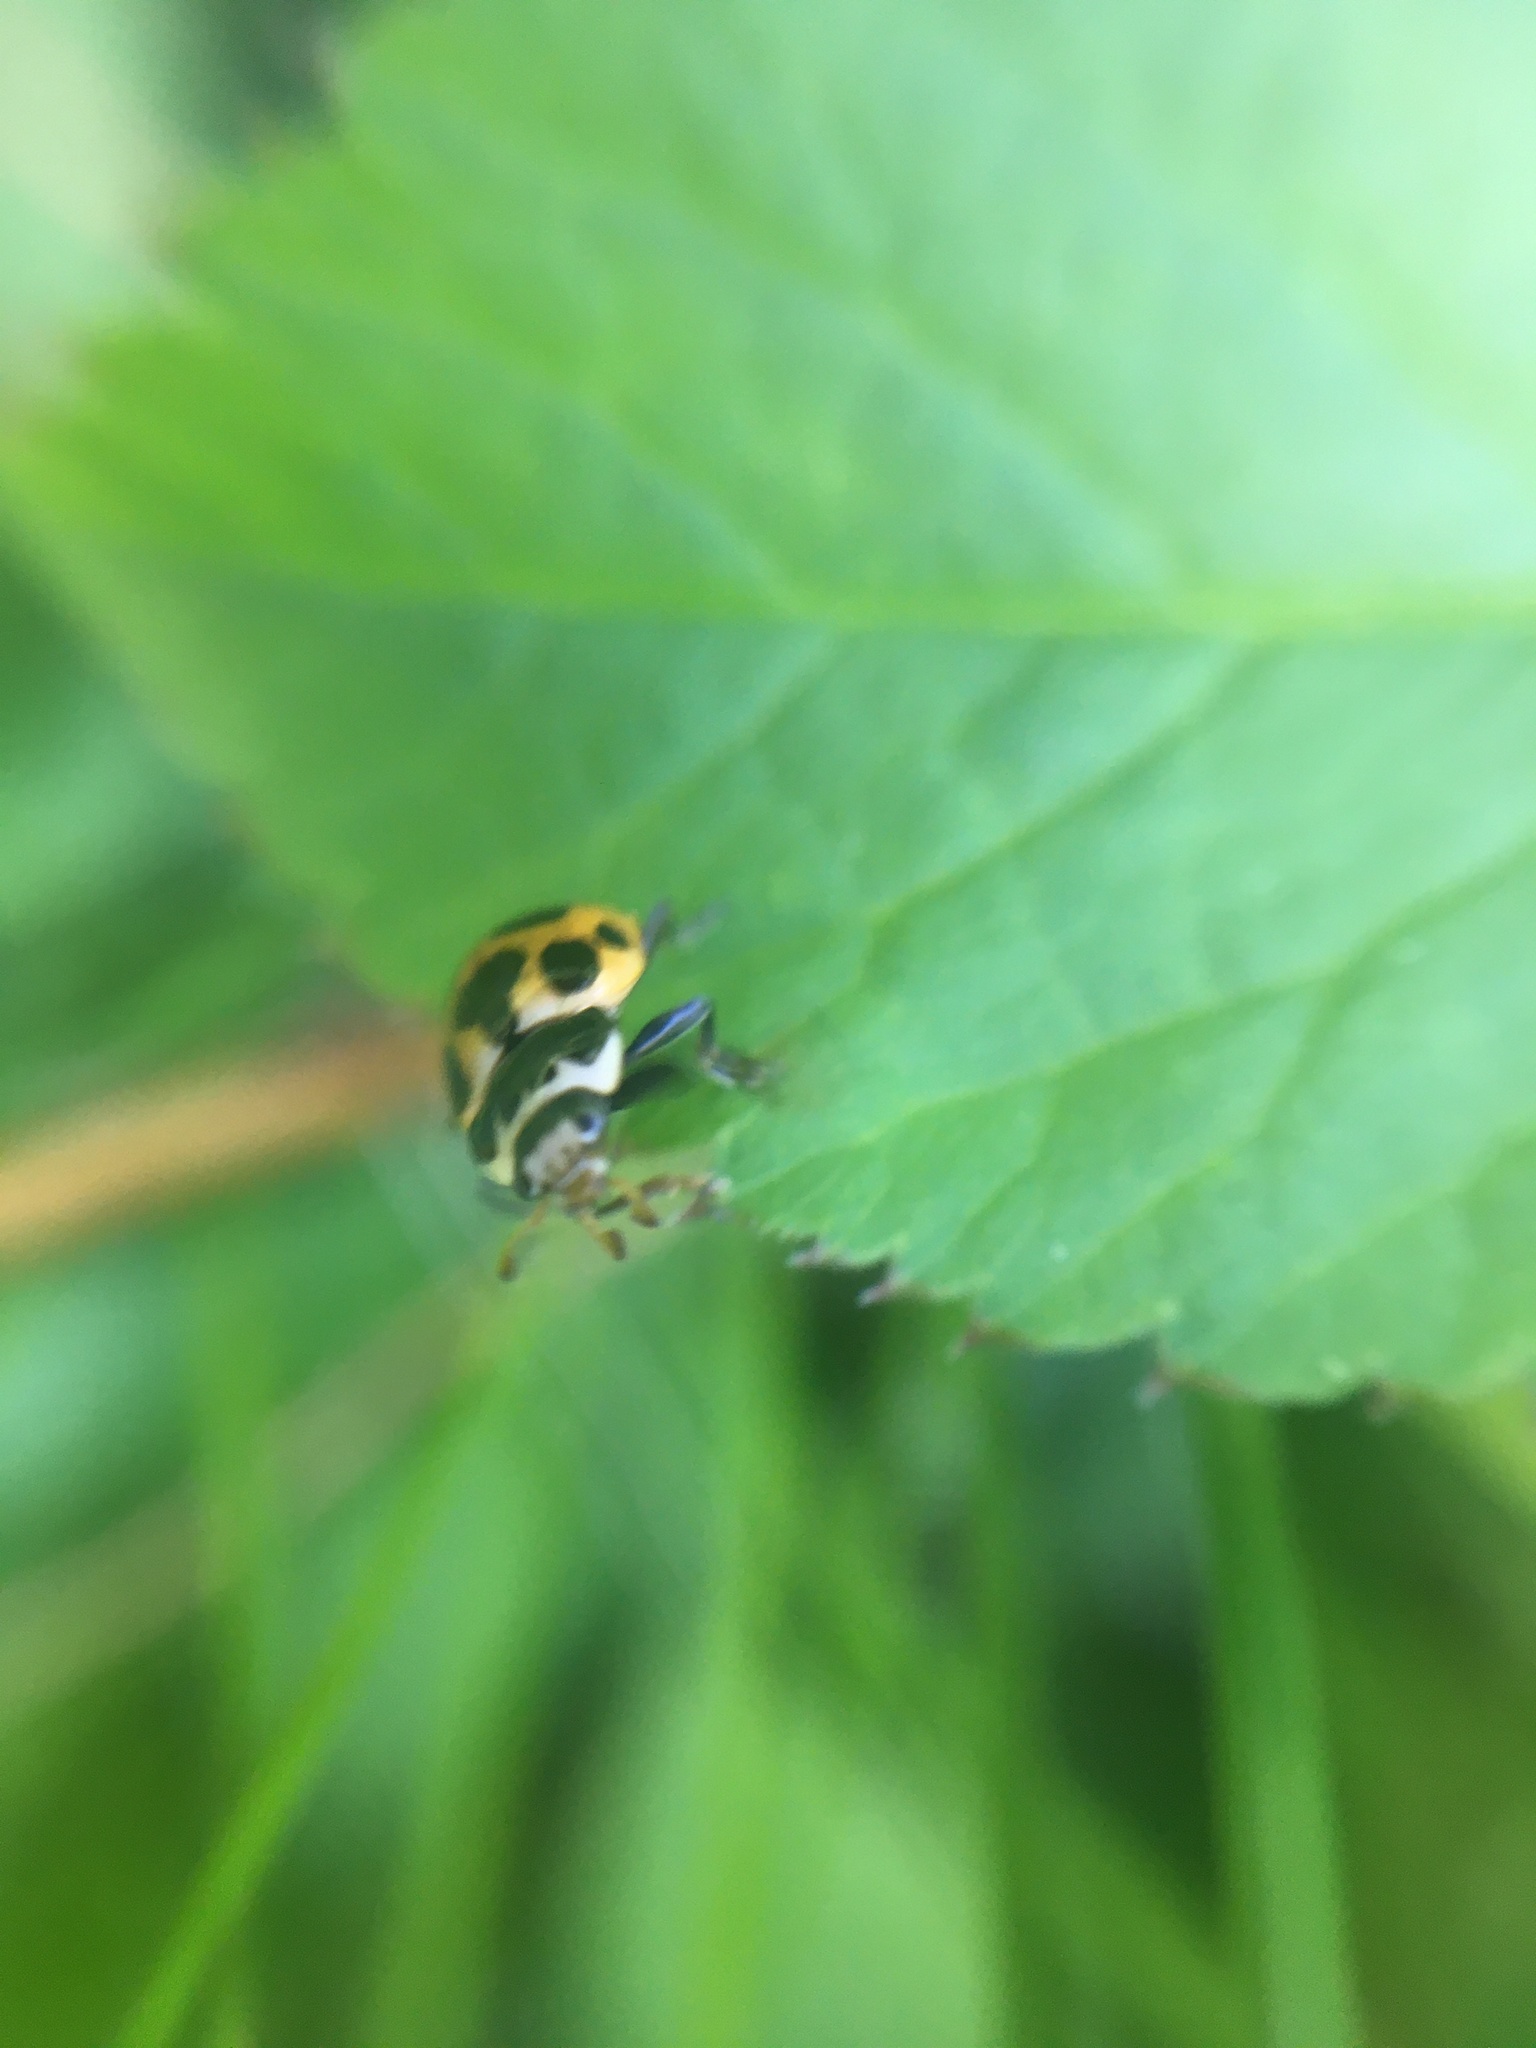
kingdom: Animalia
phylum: Arthropoda
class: Insecta
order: Coleoptera
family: Coccinellidae
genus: Ceratomegilla
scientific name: Ceratomegilla notata
